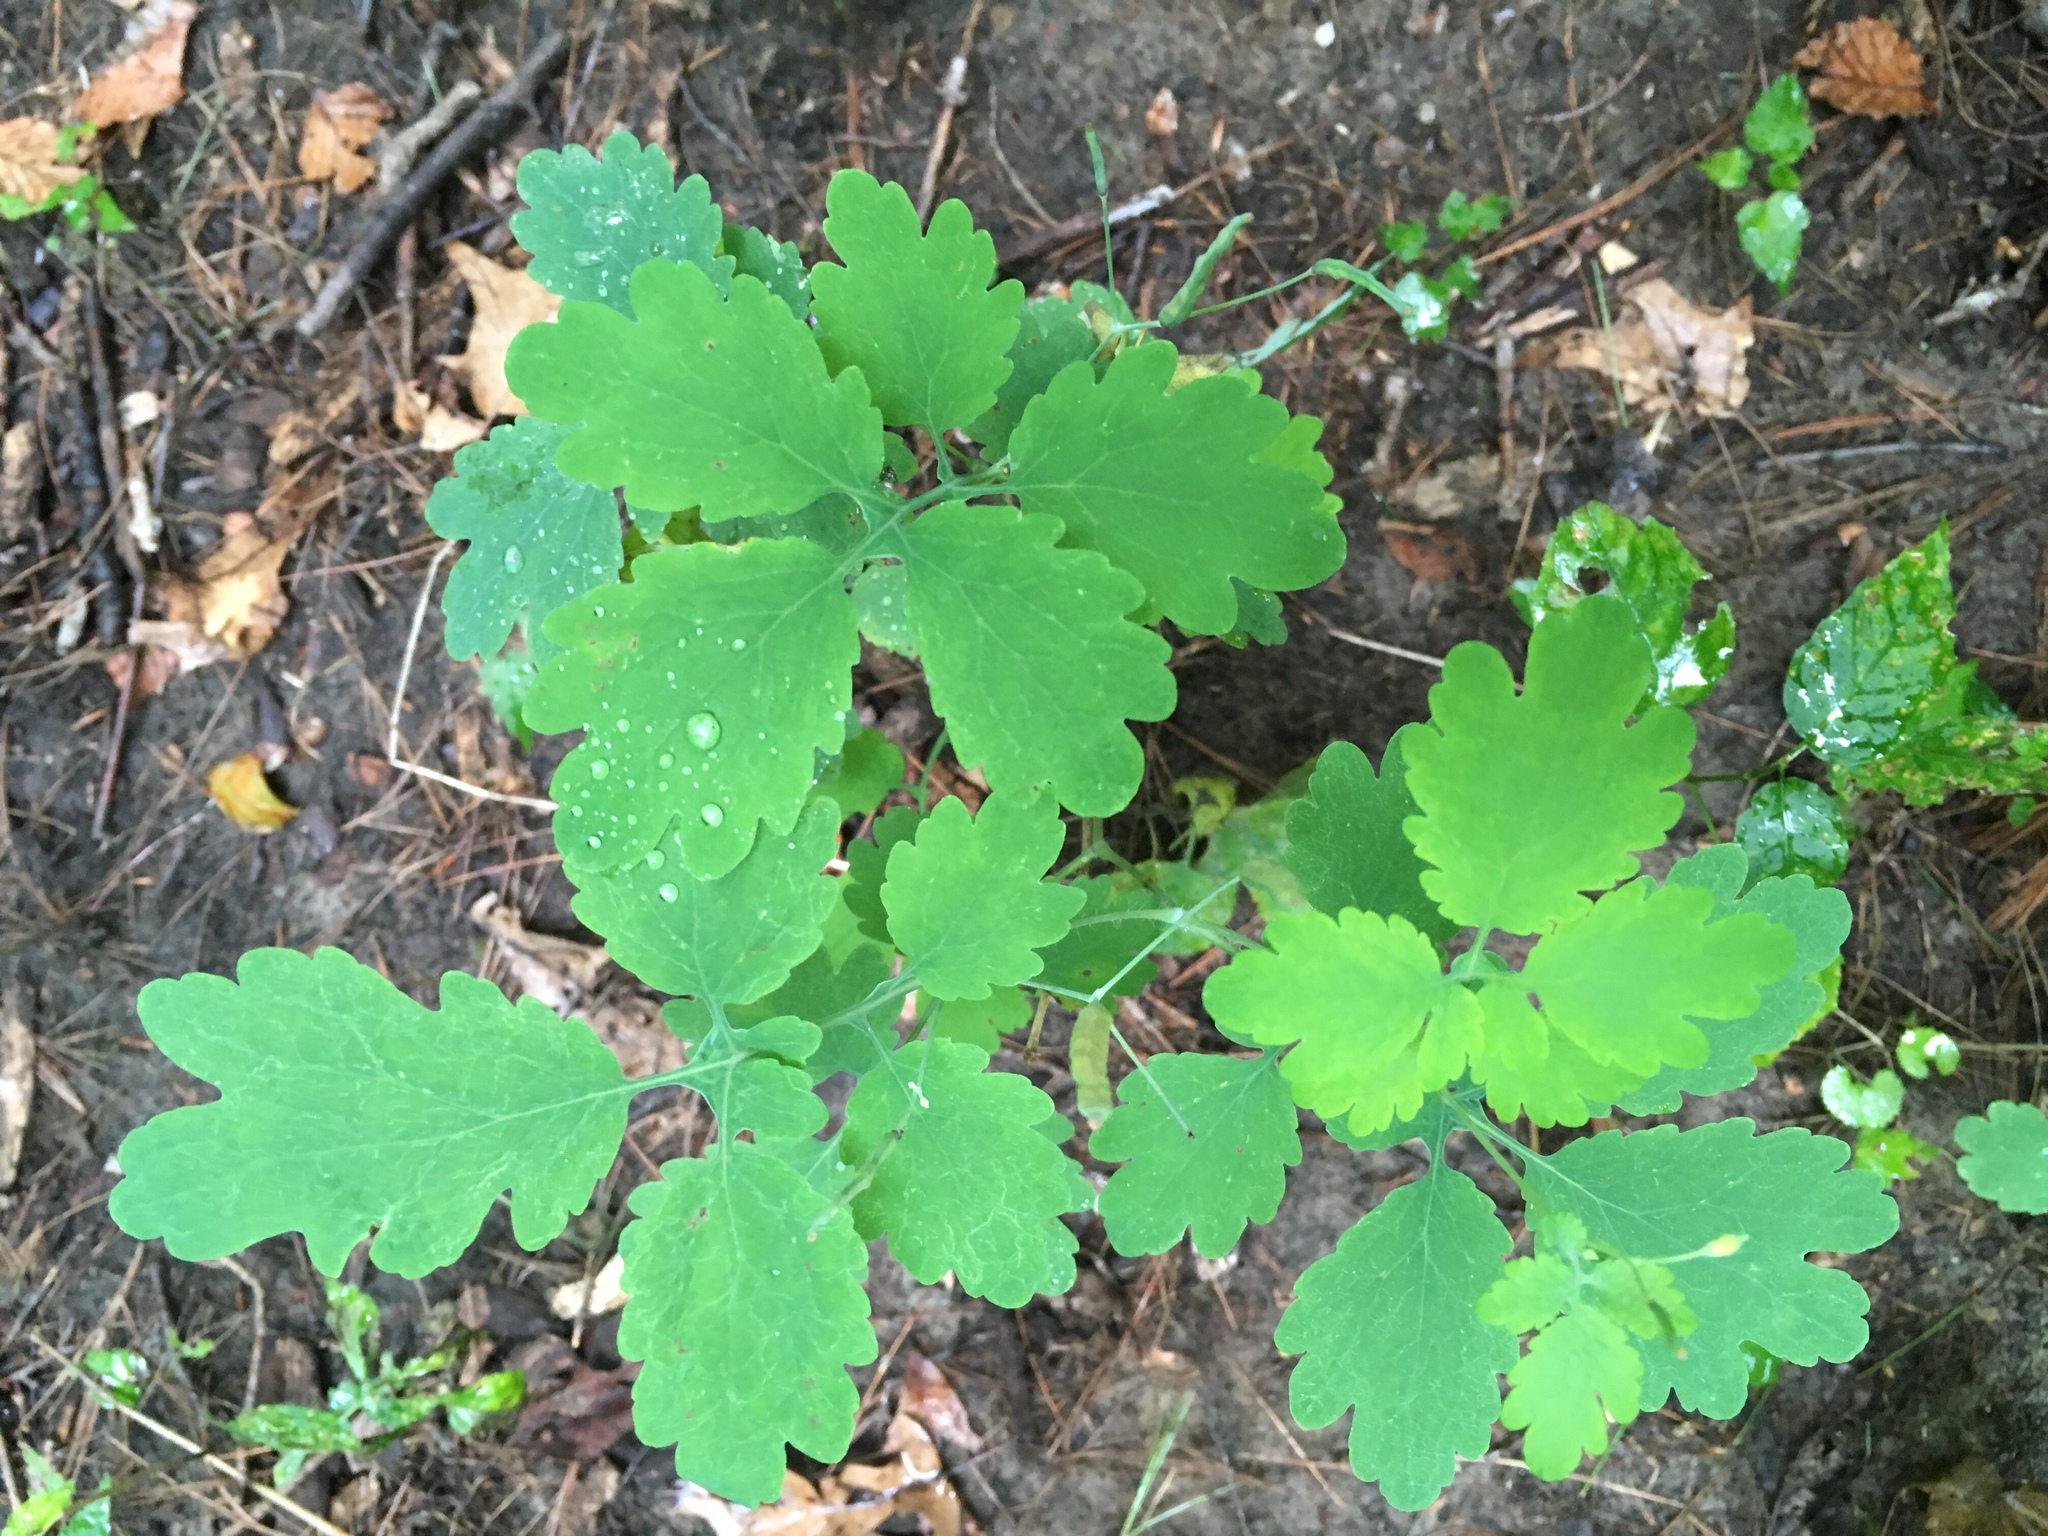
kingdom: Plantae
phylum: Tracheophyta
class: Magnoliopsida
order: Ranunculales
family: Papaveraceae
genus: Chelidonium
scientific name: Chelidonium majus
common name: Greater celandine
